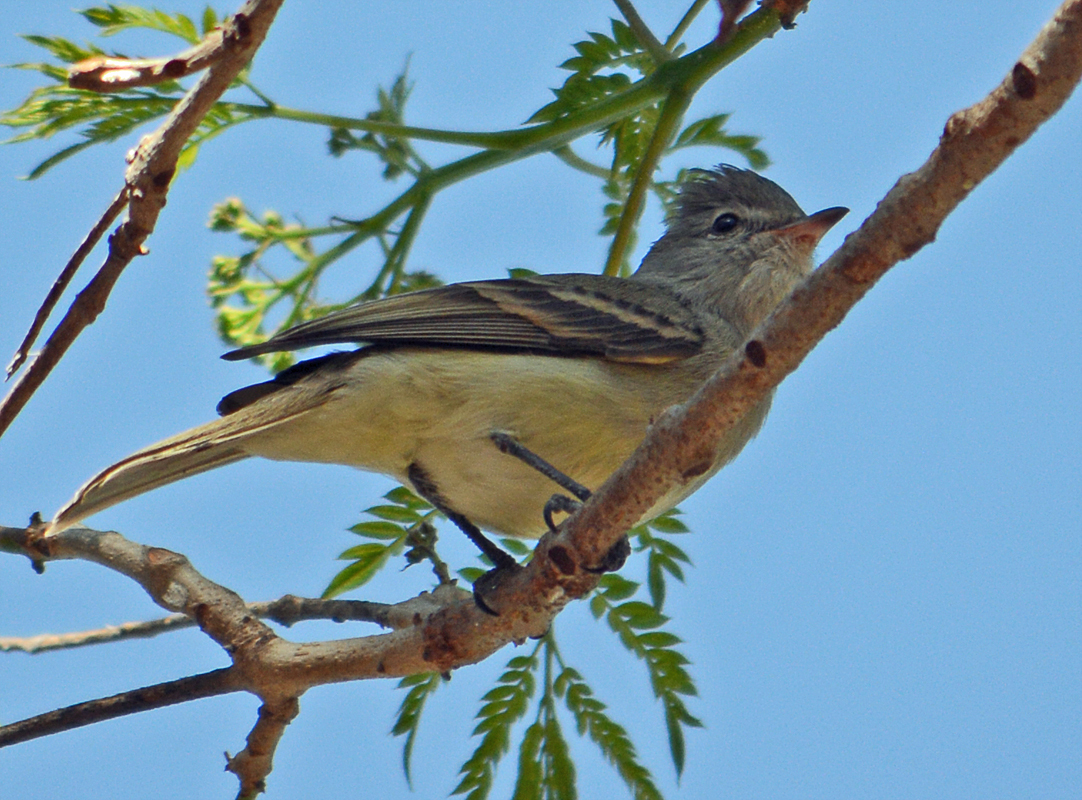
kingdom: Animalia
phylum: Chordata
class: Aves
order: Passeriformes
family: Tyrannidae
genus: Camptostoma
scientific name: Camptostoma imberbe
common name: Northern beardless-tyrannulet
